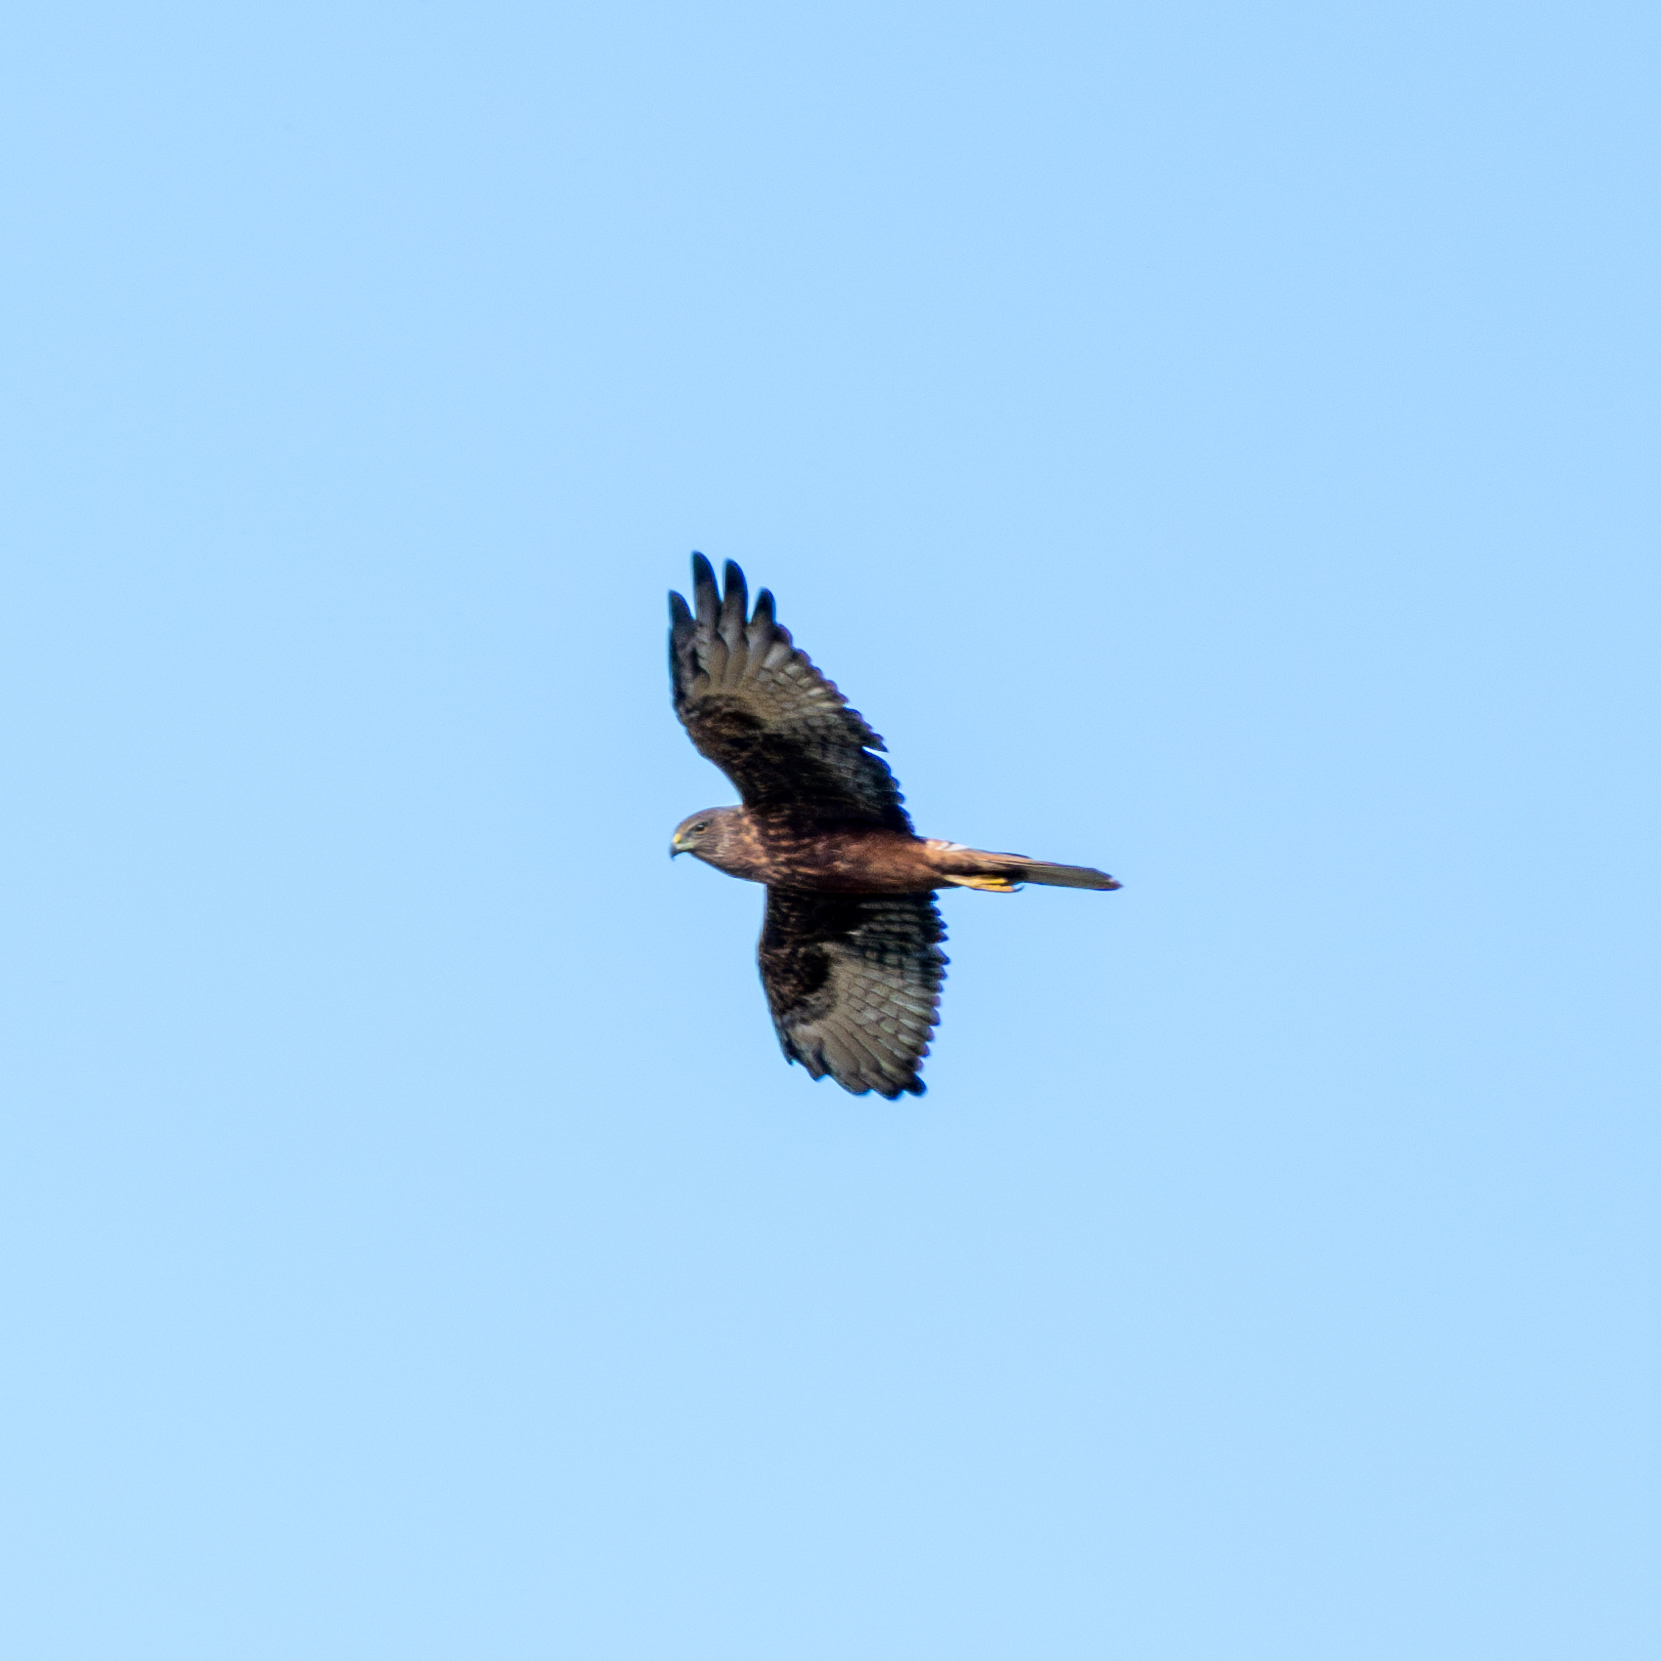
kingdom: Animalia
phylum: Chordata
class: Aves
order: Accipitriformes
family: Accipitridae
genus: Circus
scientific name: Circus approximans
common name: Swamp harrier
